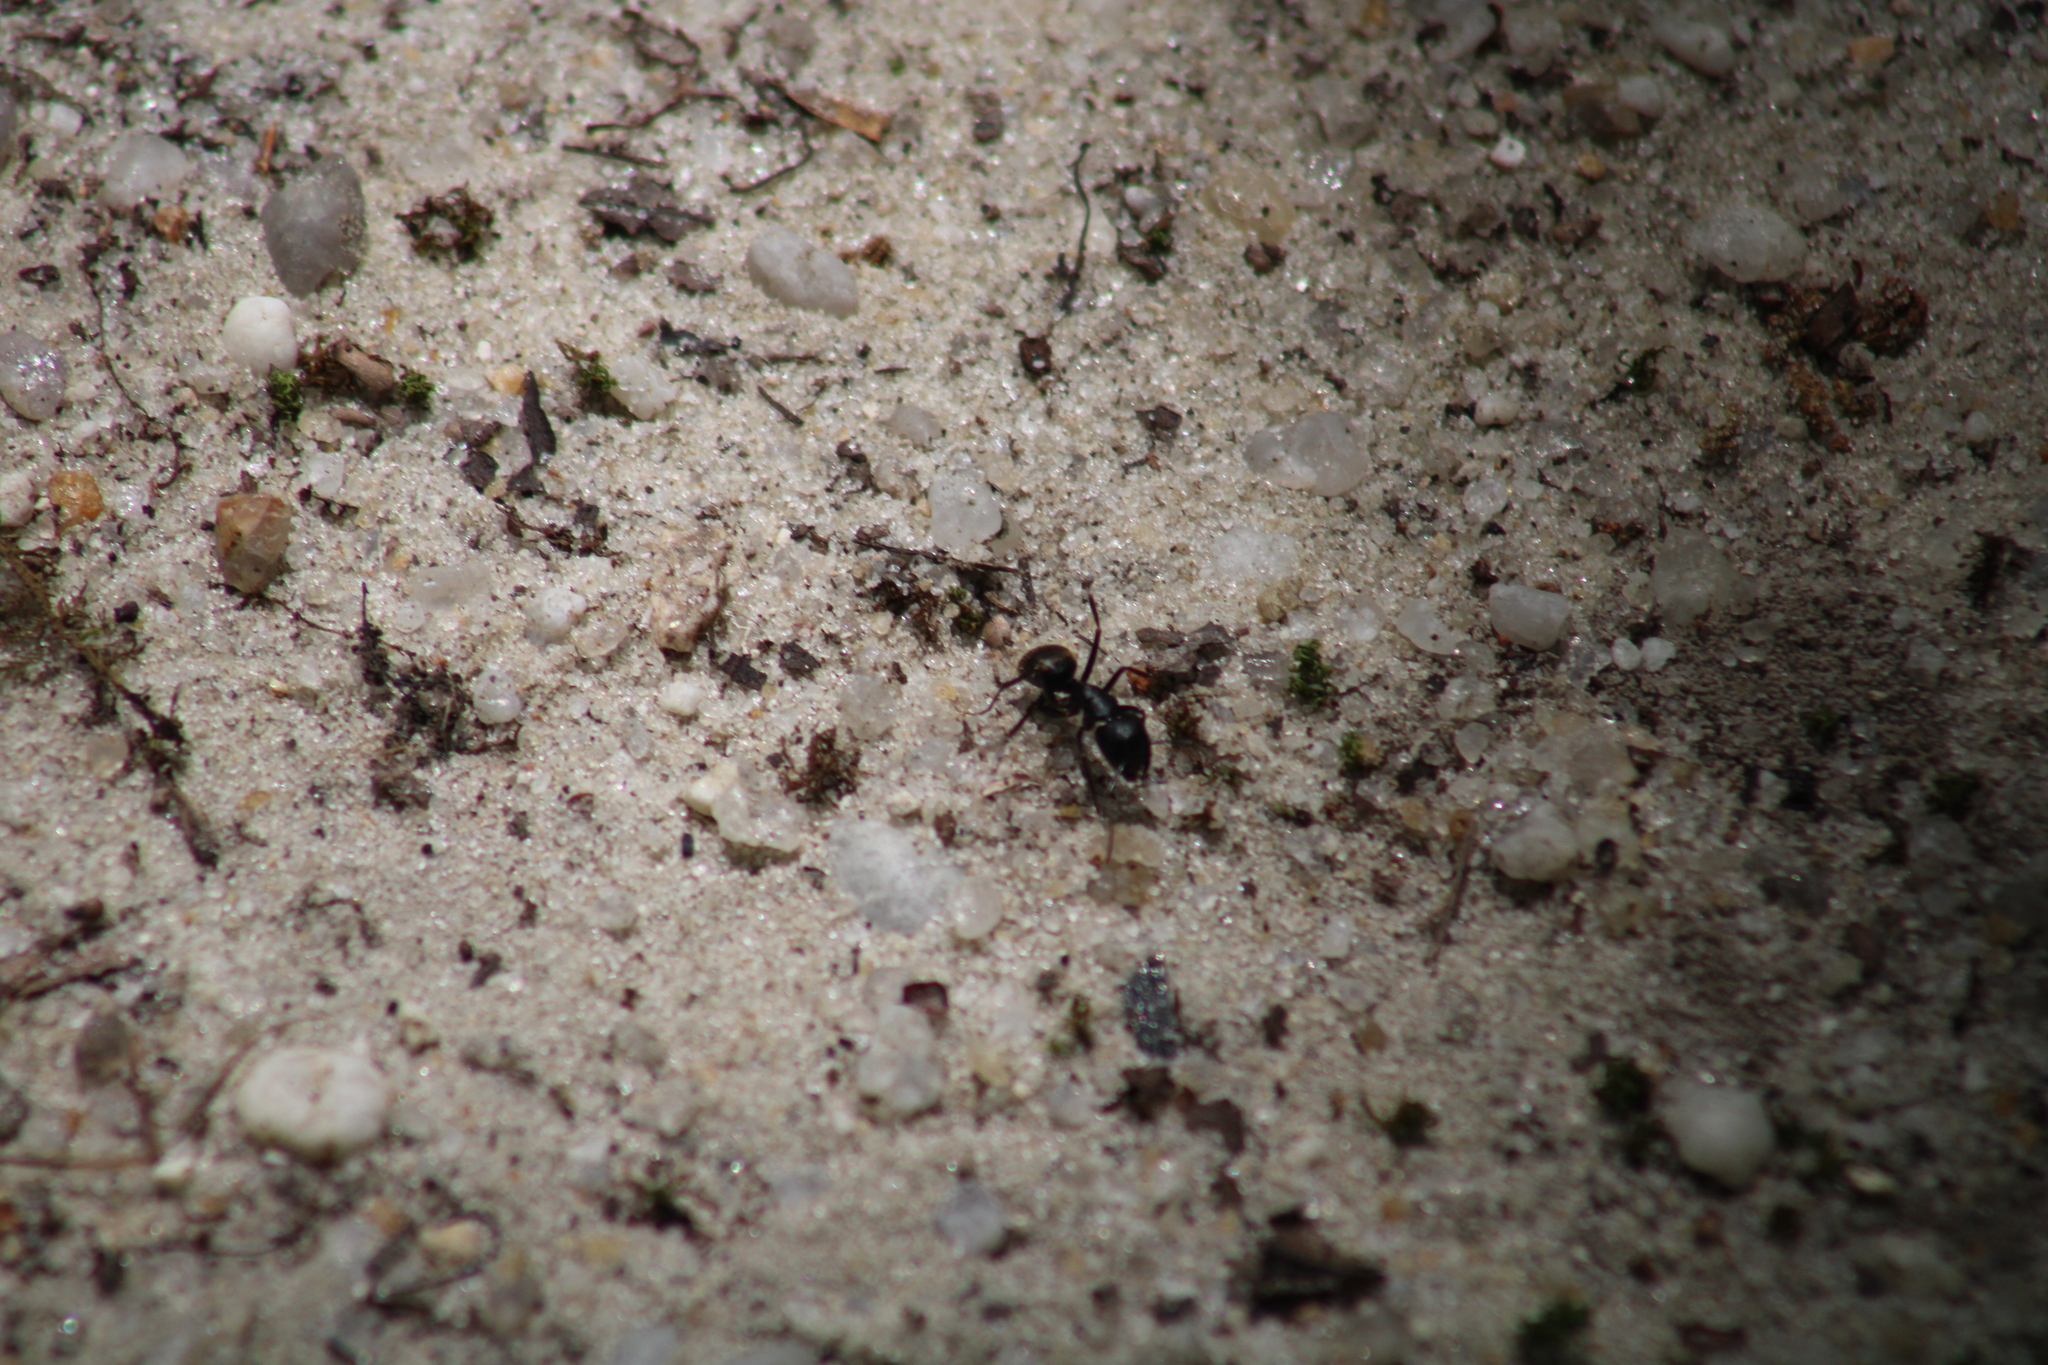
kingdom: Animalia
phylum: Arthropoda
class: Insecta
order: Hymenoptera
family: Formicidae
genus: Camponotus
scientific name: Camponotus pennsylvanicus
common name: Black carpenter ant
